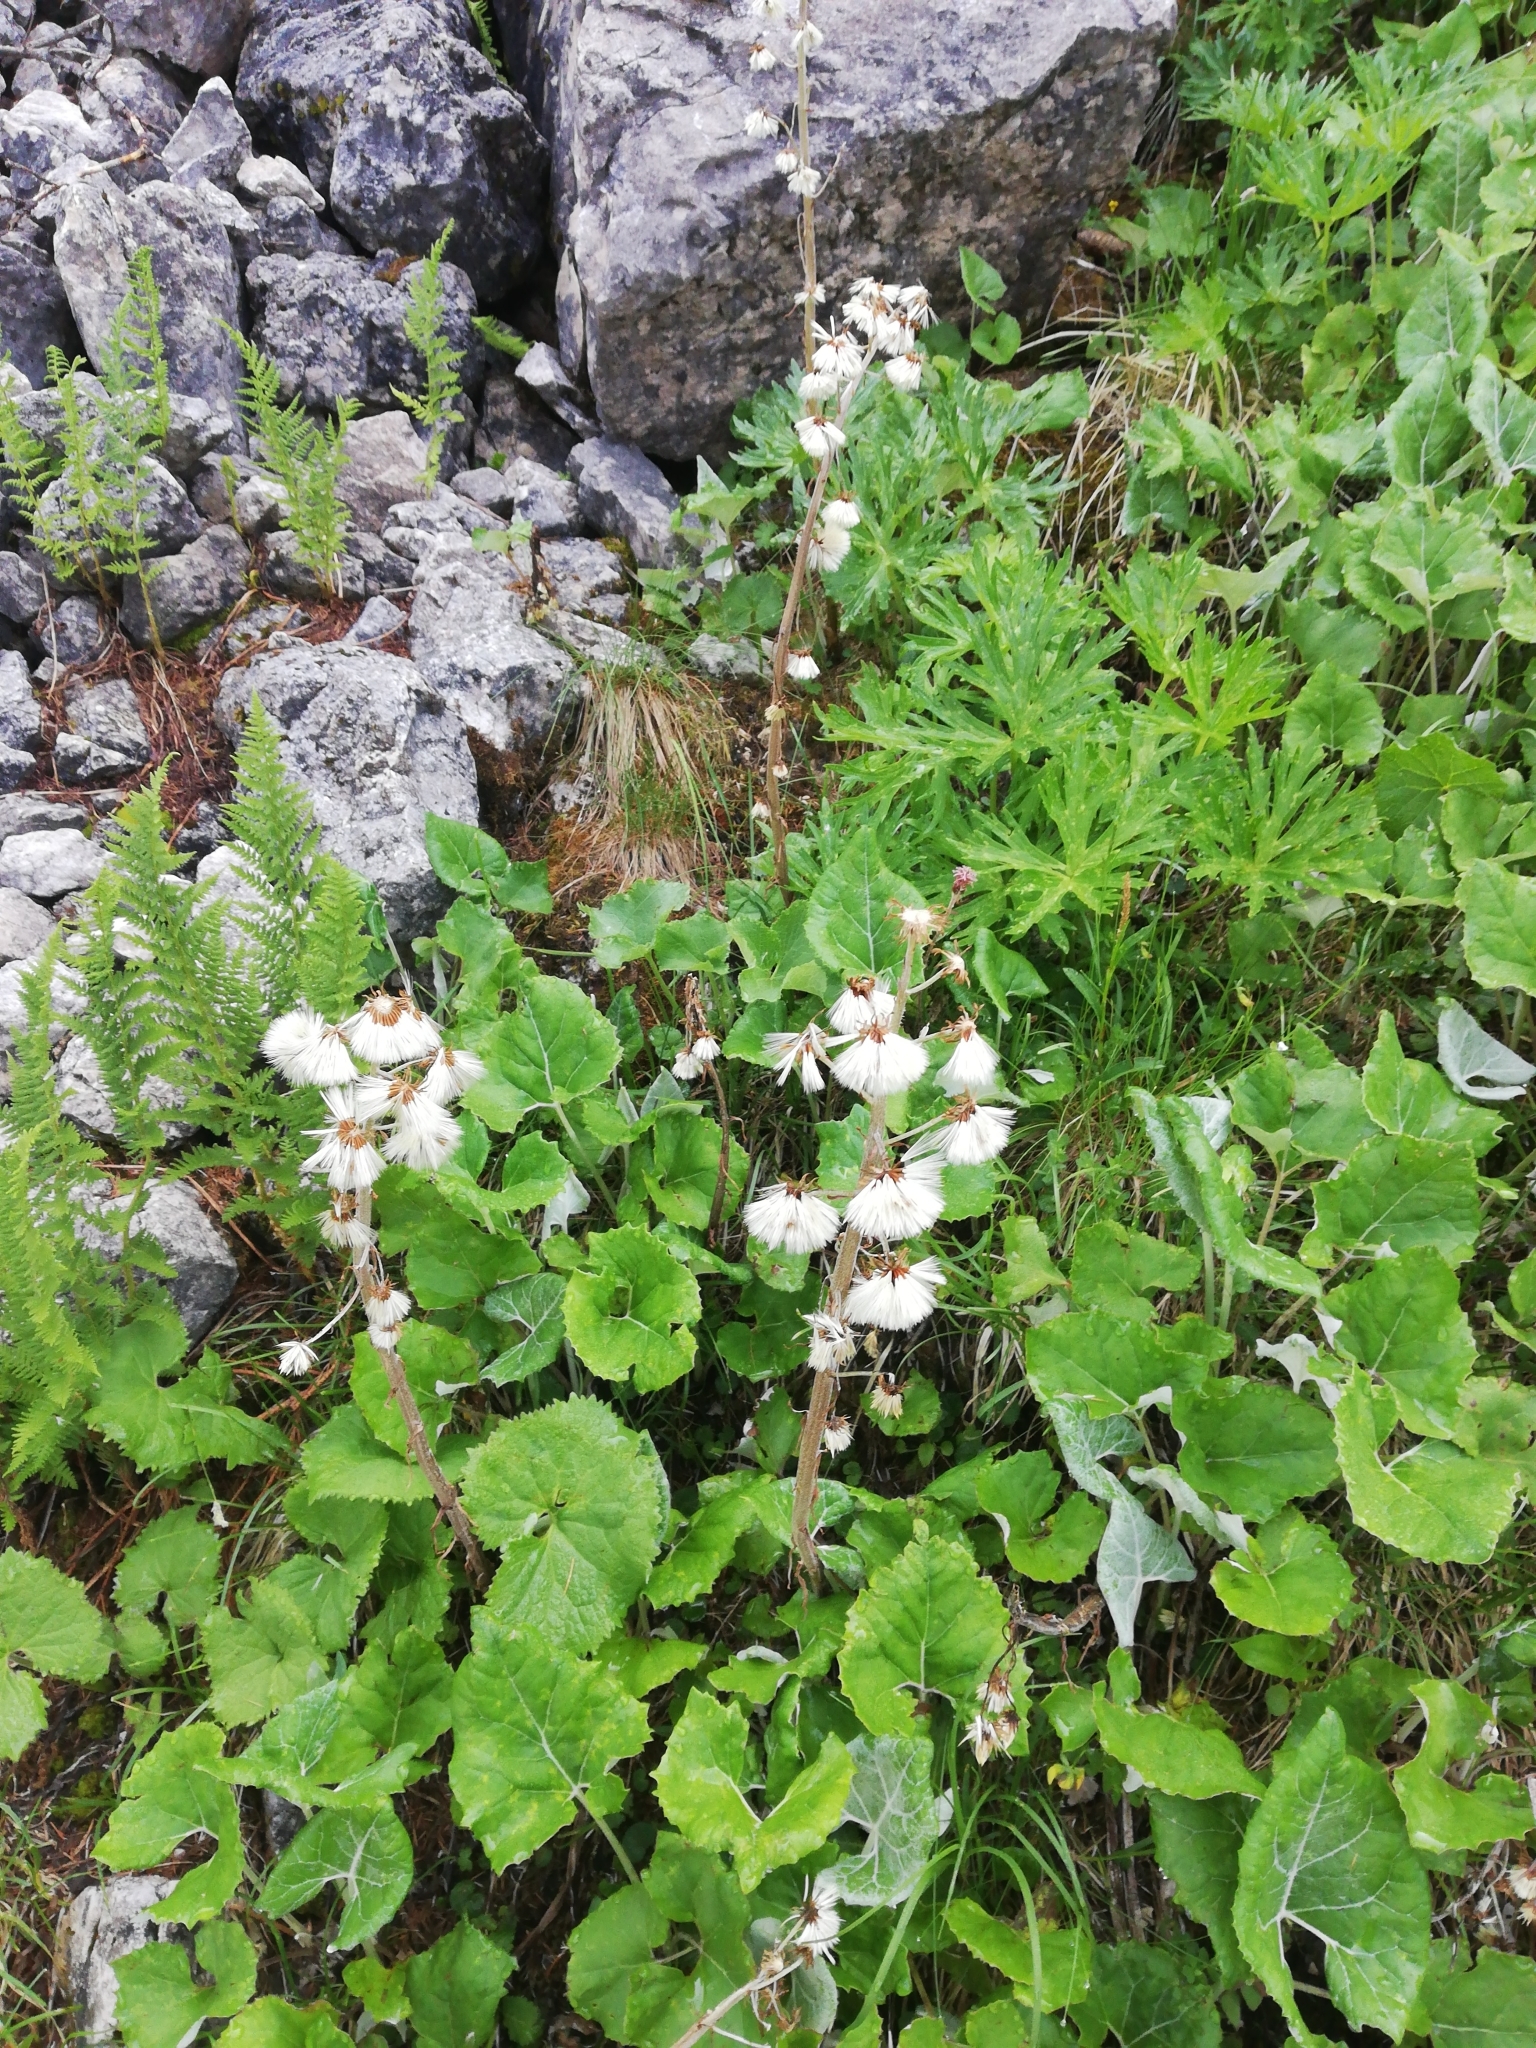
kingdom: Plantae
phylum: Tracheophyta
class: Magnoliopsida
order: Asterales
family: Asteraceae
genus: Petasites
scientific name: Petasites albus
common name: White butterbur
